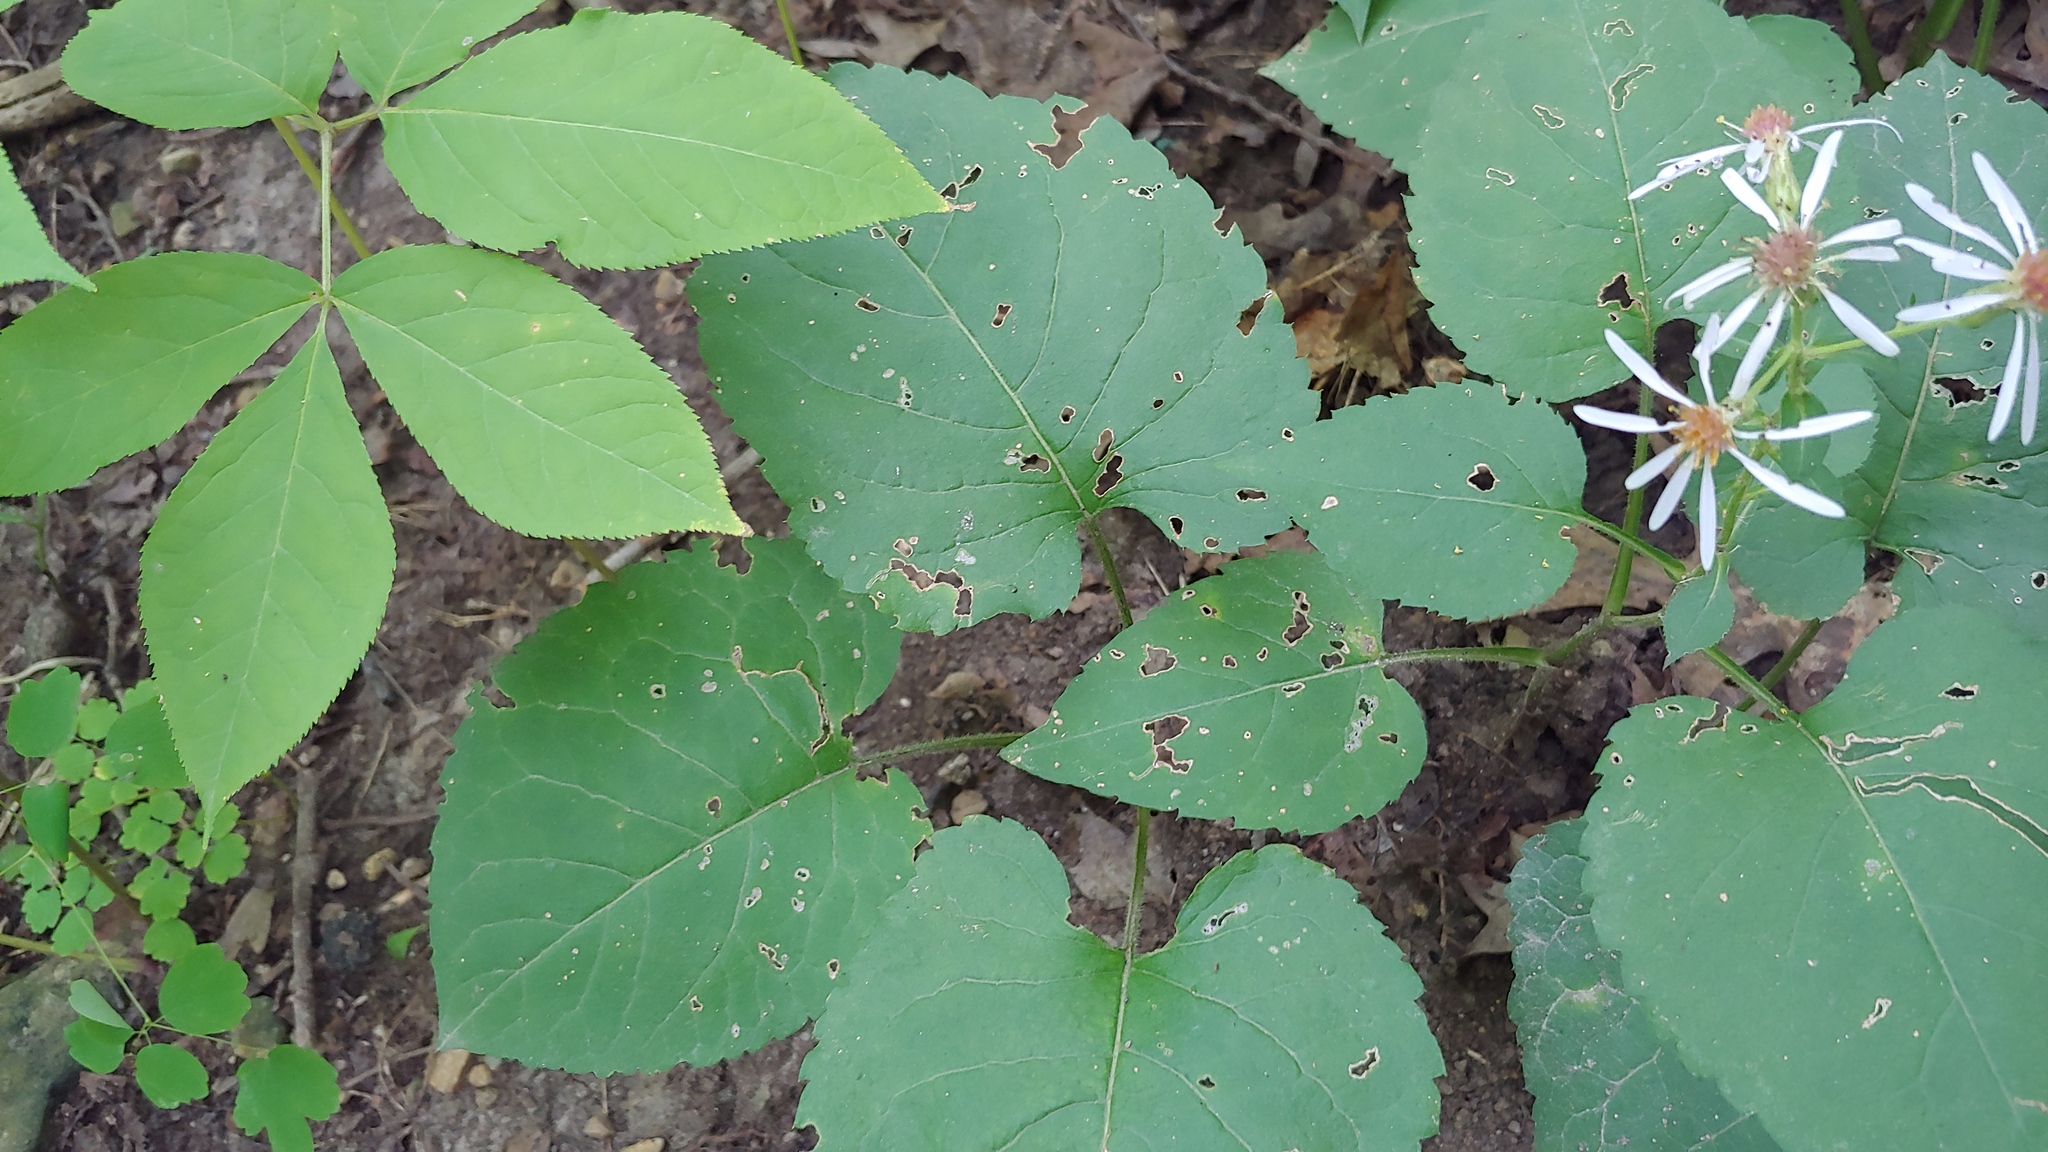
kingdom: Plantae
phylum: Tracheophyta
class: Magnoliopsida
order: Asterales
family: Asteraceae
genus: Eurybia
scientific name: Eurybia macrophylla
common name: Big-leaved aster
